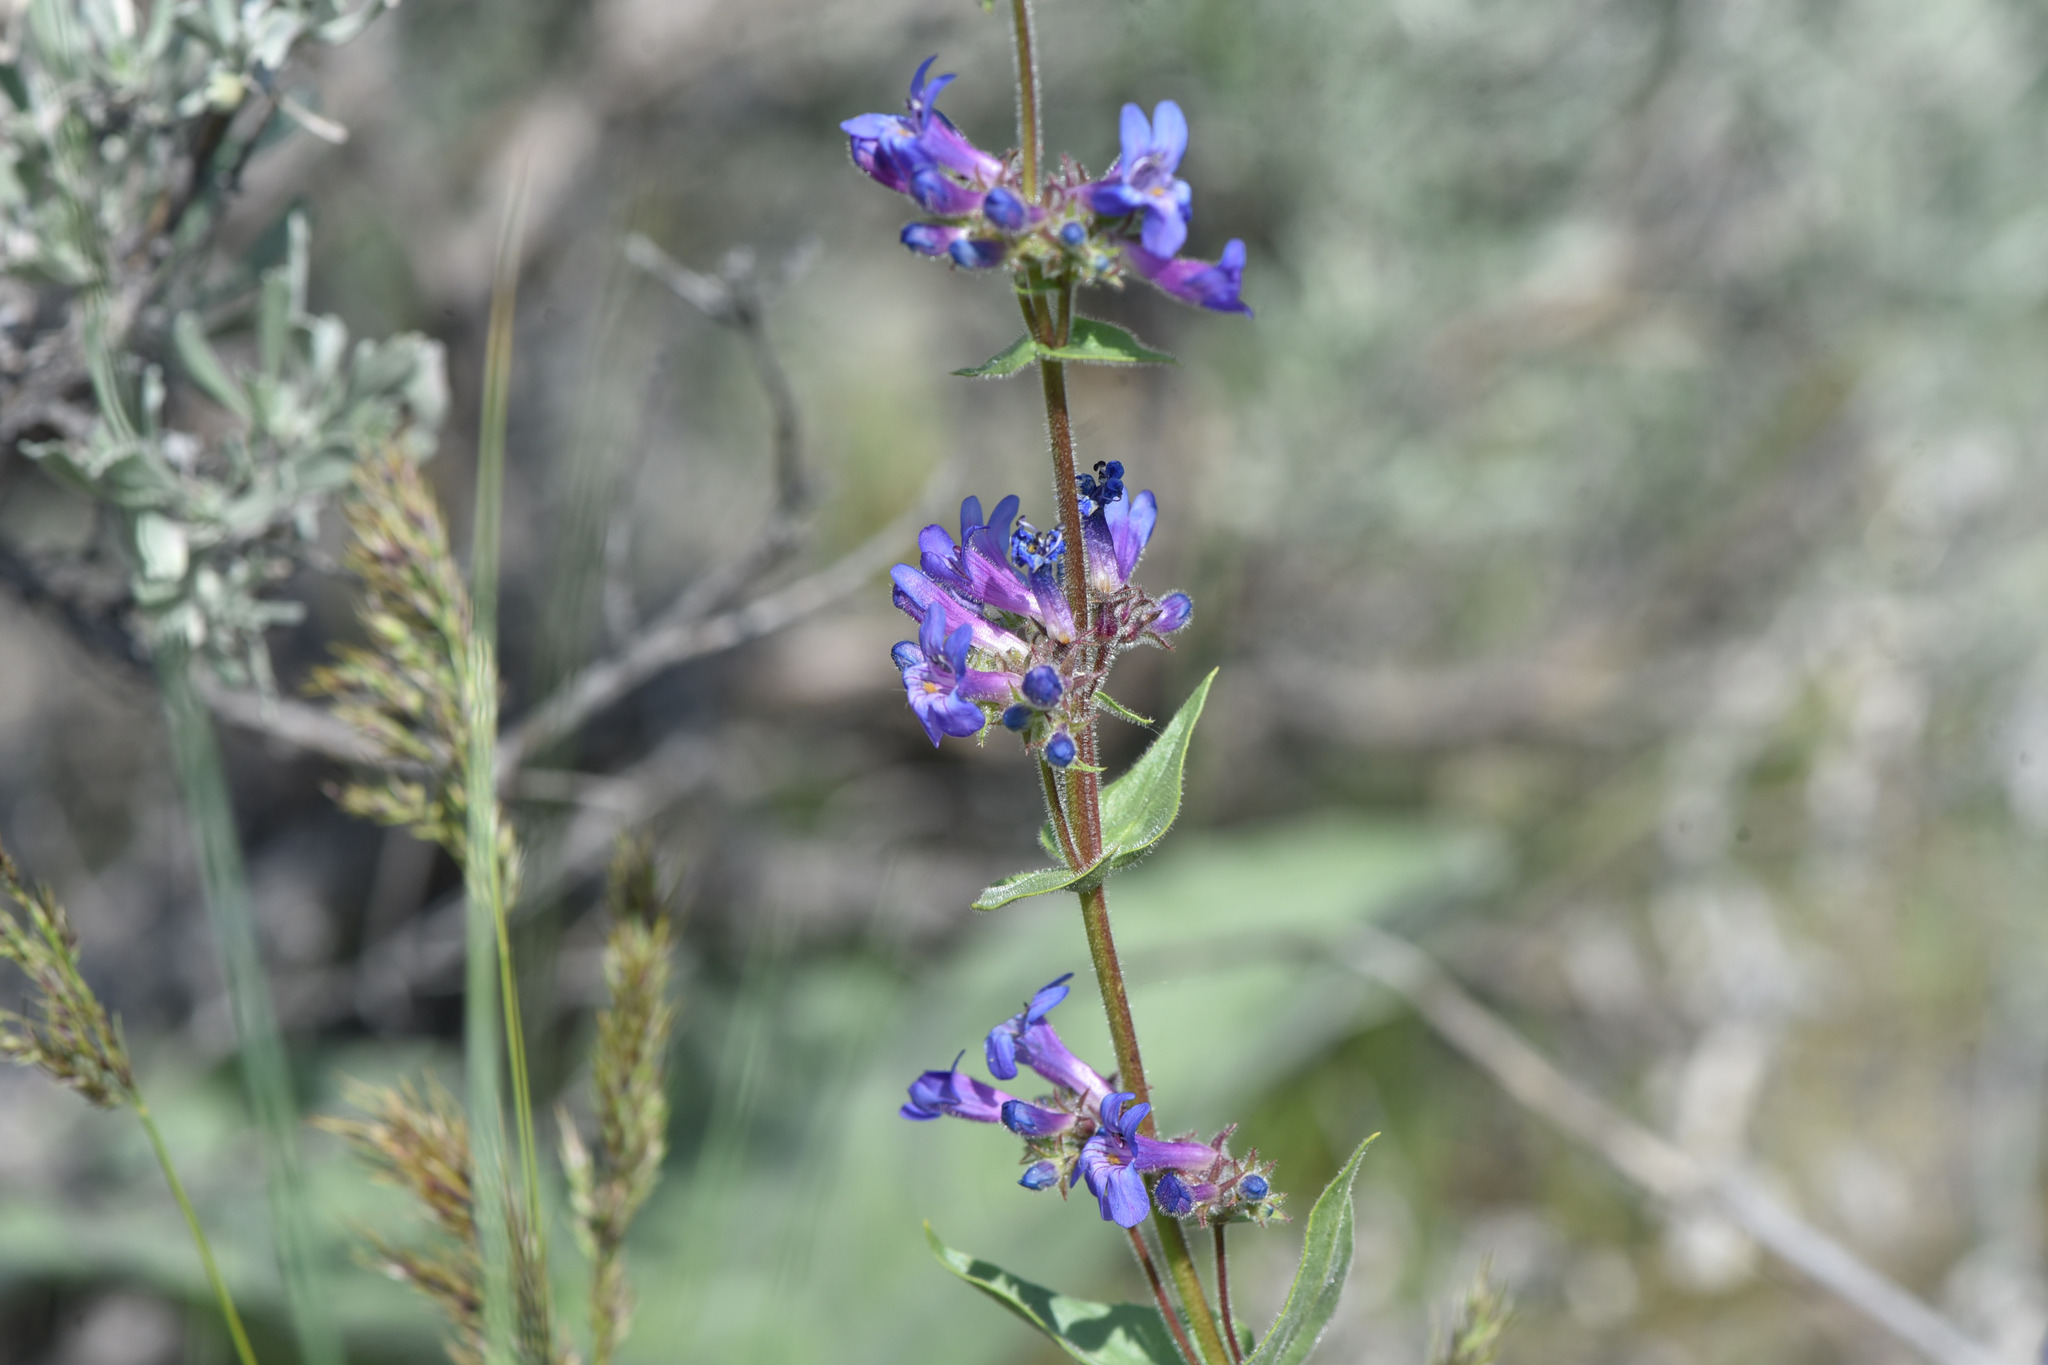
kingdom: Plantae
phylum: Tracheophyta
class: Magnoliopsida
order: Lamiales
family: Plantaginaceae
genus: Penstemon
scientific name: Penstemon pruinosus
